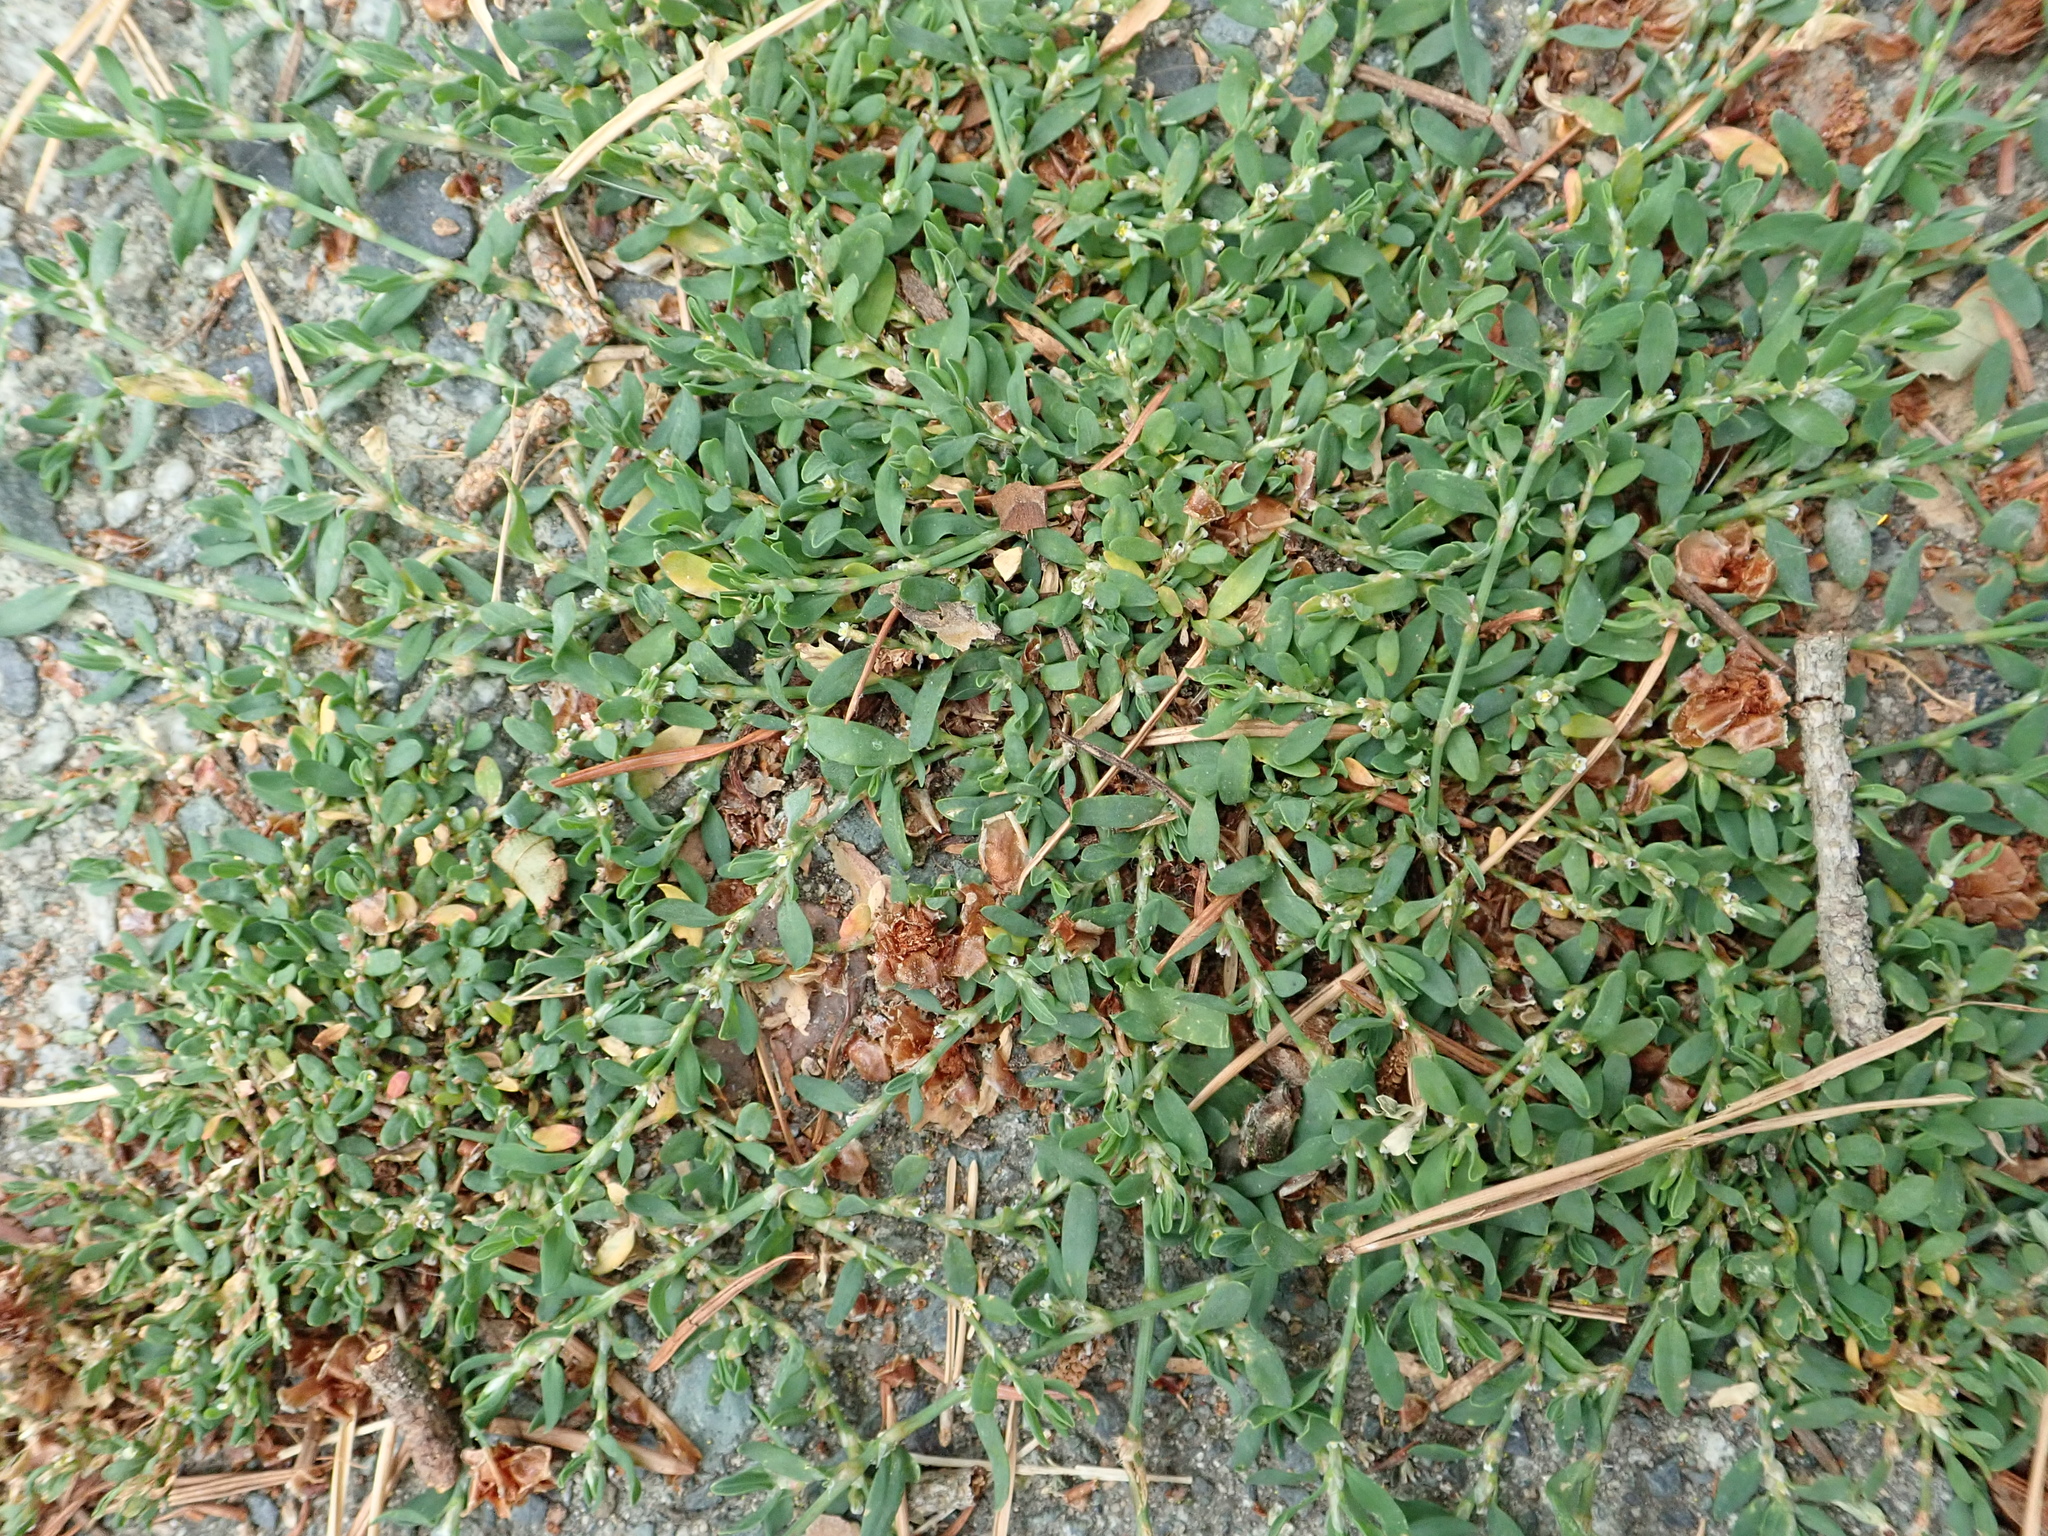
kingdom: Plantae
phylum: Tracheophyta
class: Magnoliopsida
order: Caryophyllales
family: Polygonaceae
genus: Polygonum
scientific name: Polygonum aviculare
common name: Prostrate knotweed
